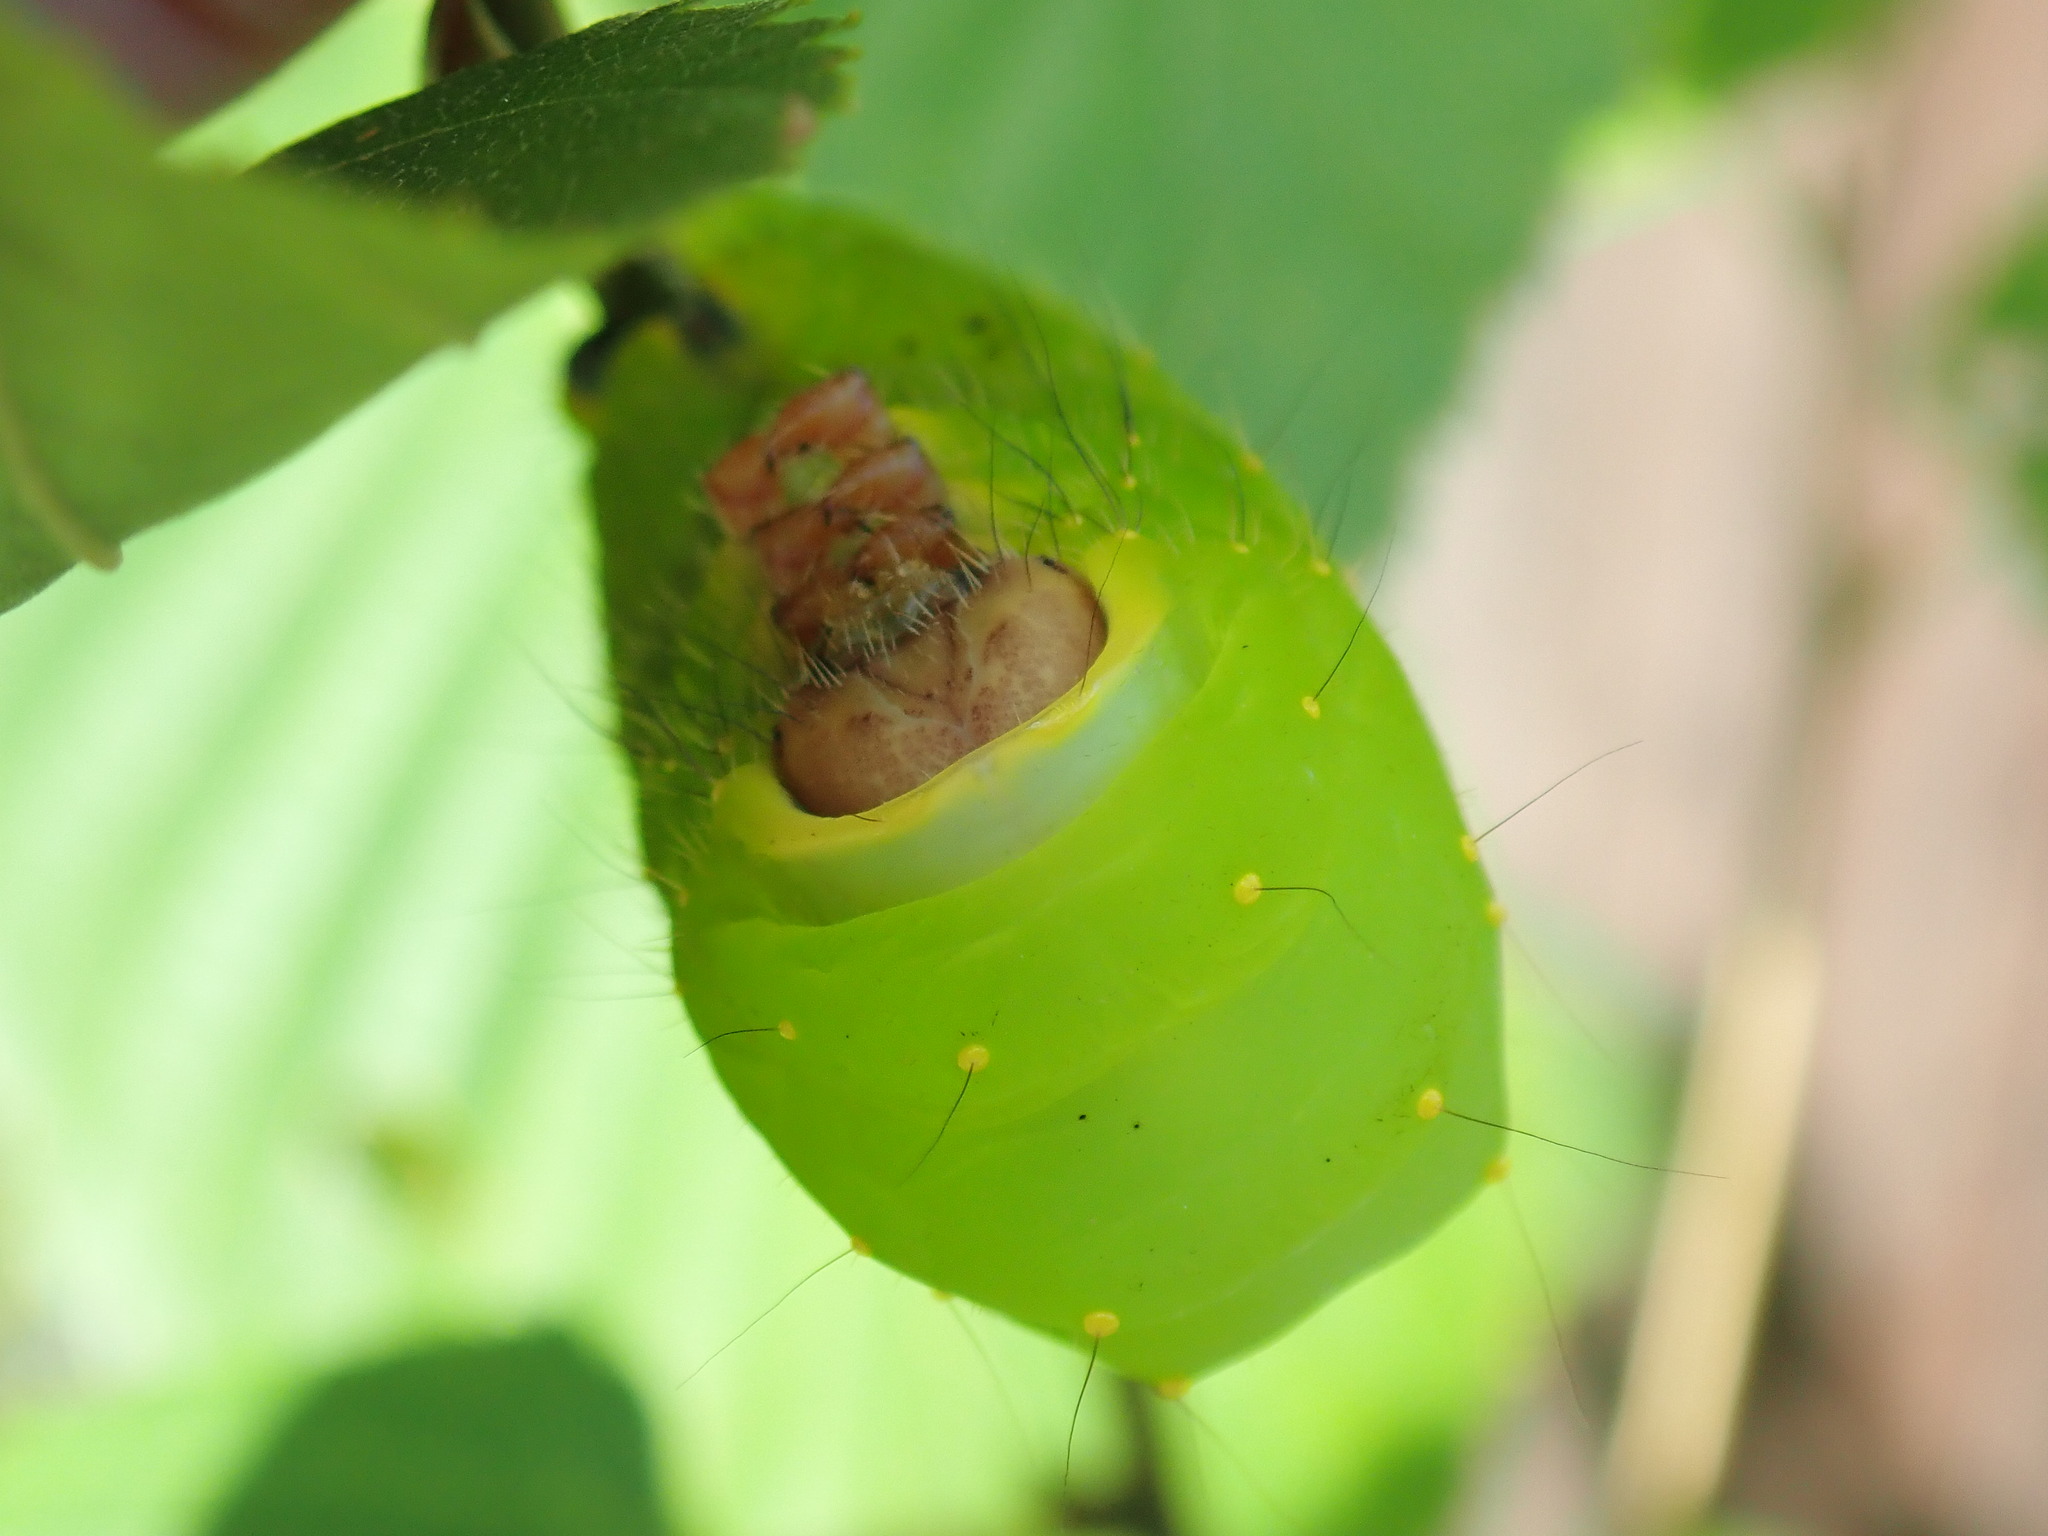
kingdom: Animalia
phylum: Arthropoda
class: Insecta
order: Lepidoptera
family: Saturniidae
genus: Antheraea
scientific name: Antheraea polyphemus
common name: Polyphemus moth
